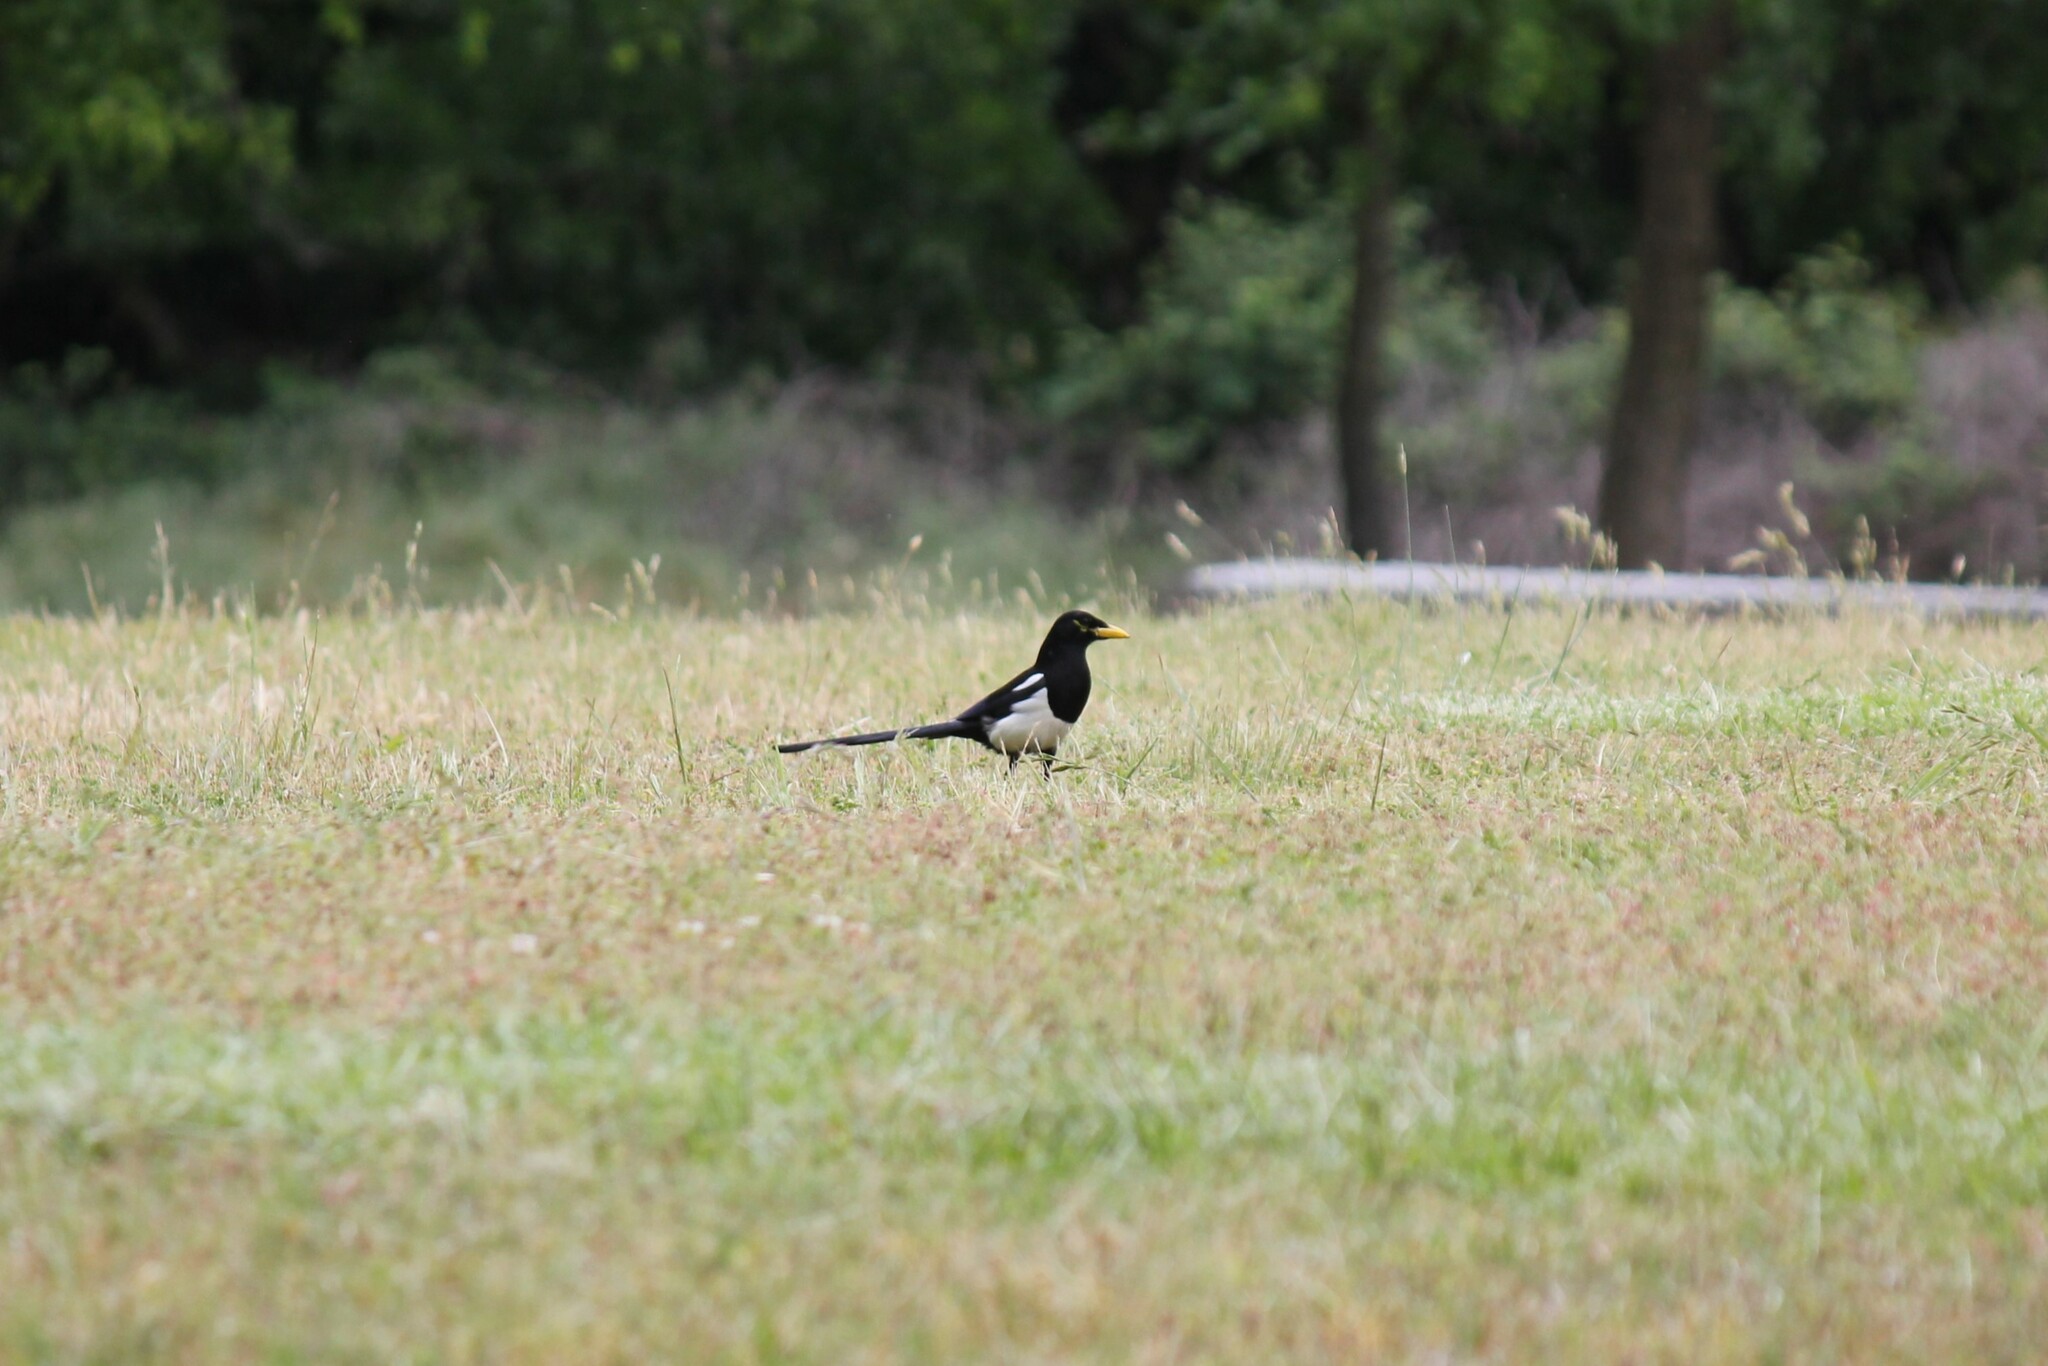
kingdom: Animalia
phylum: Chordata
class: Aves
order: Passeriformes
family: Corvidae
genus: Pica
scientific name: Pica nuttalli
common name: Yellow-billed magpie
